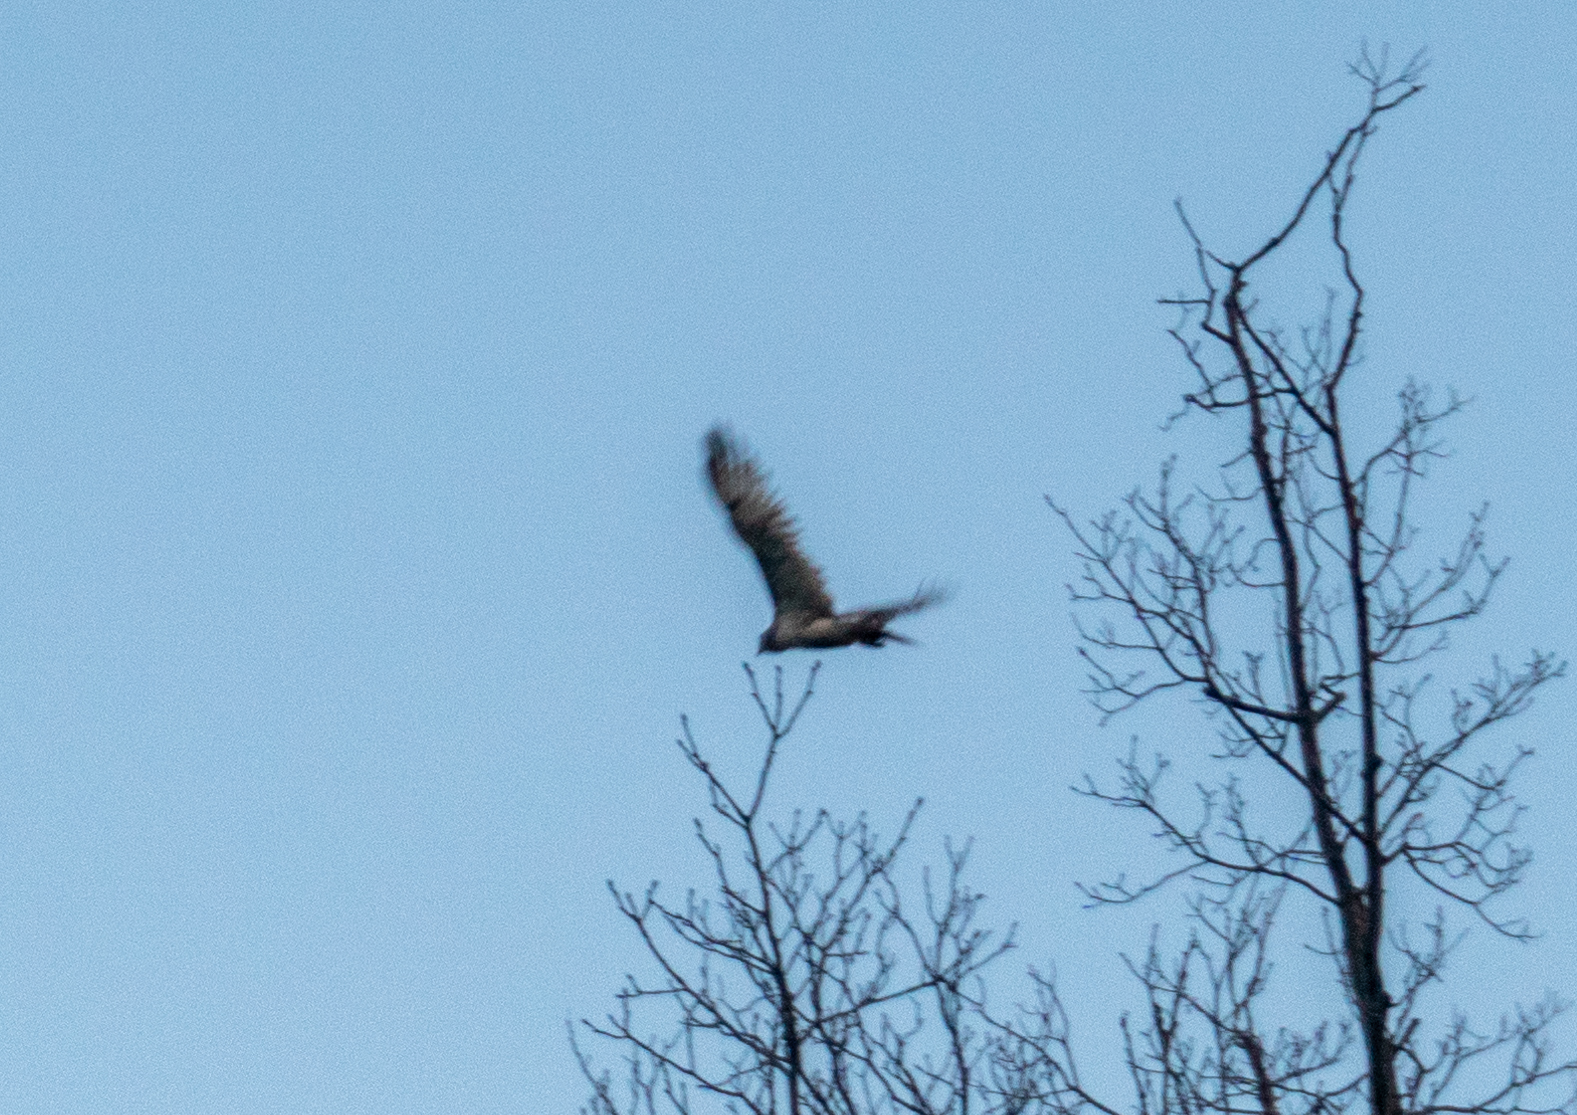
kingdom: Animalia
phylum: Chordata
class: Aves
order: Accipitriformes
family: Accipitridae
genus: Buteo
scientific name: Buteo jamaicensis
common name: Red-tailed hawk
